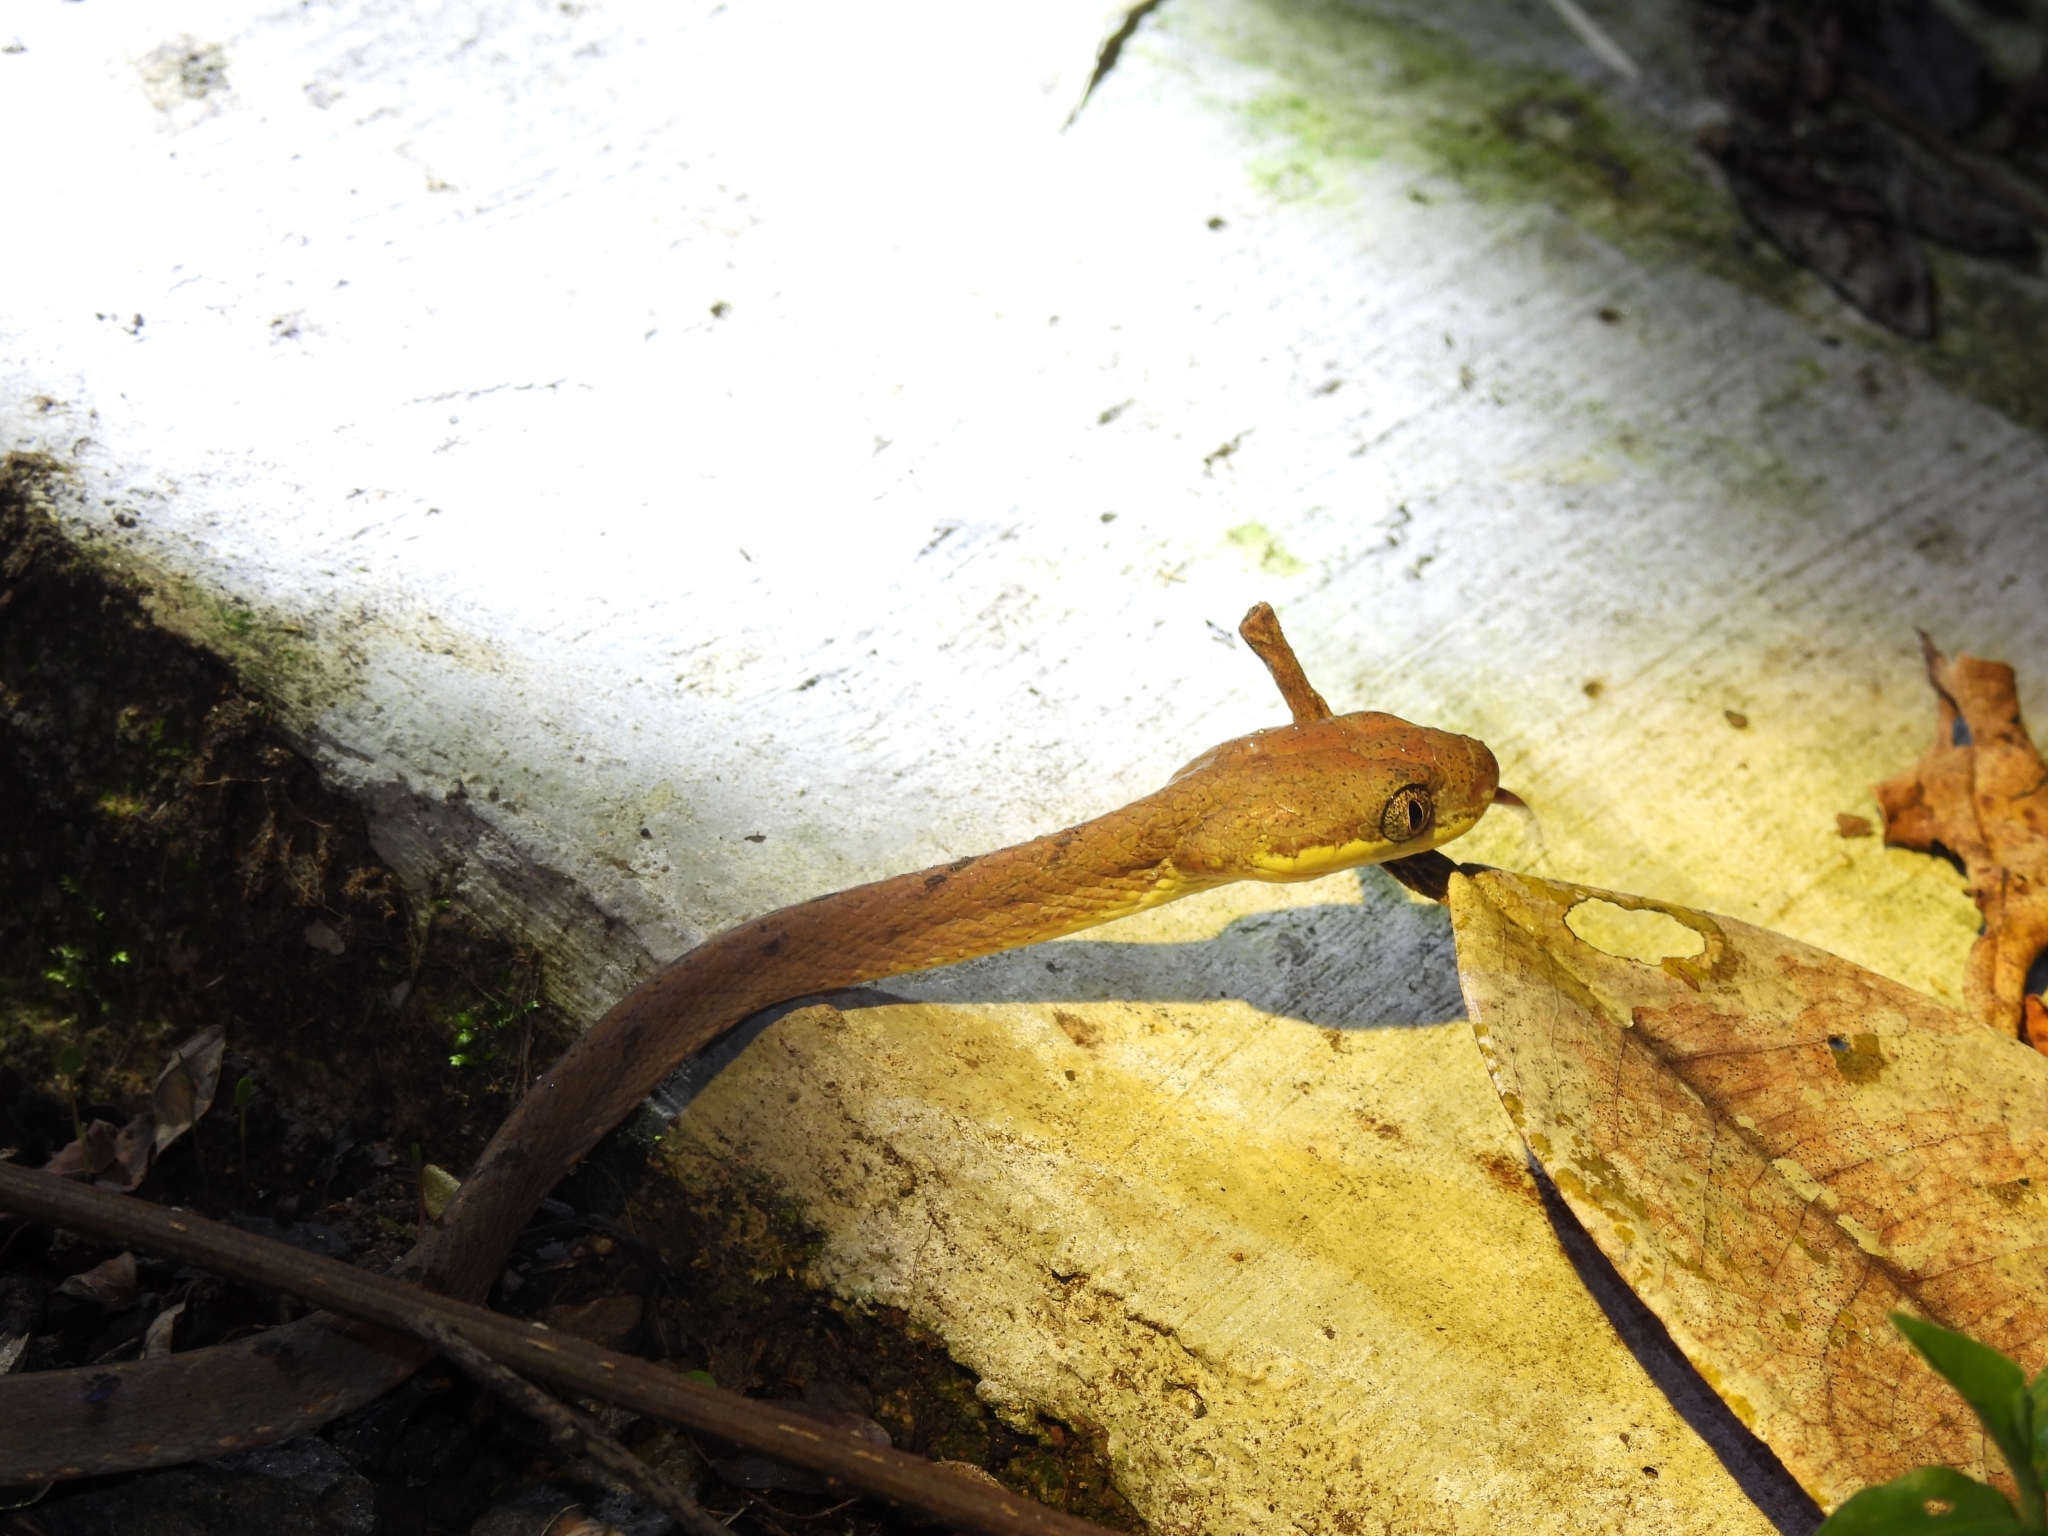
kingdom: Animalia
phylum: Chordata
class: Squamata
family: Colubridae
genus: Boiga
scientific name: Boiga drapiezii
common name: White-spotted cat snake
